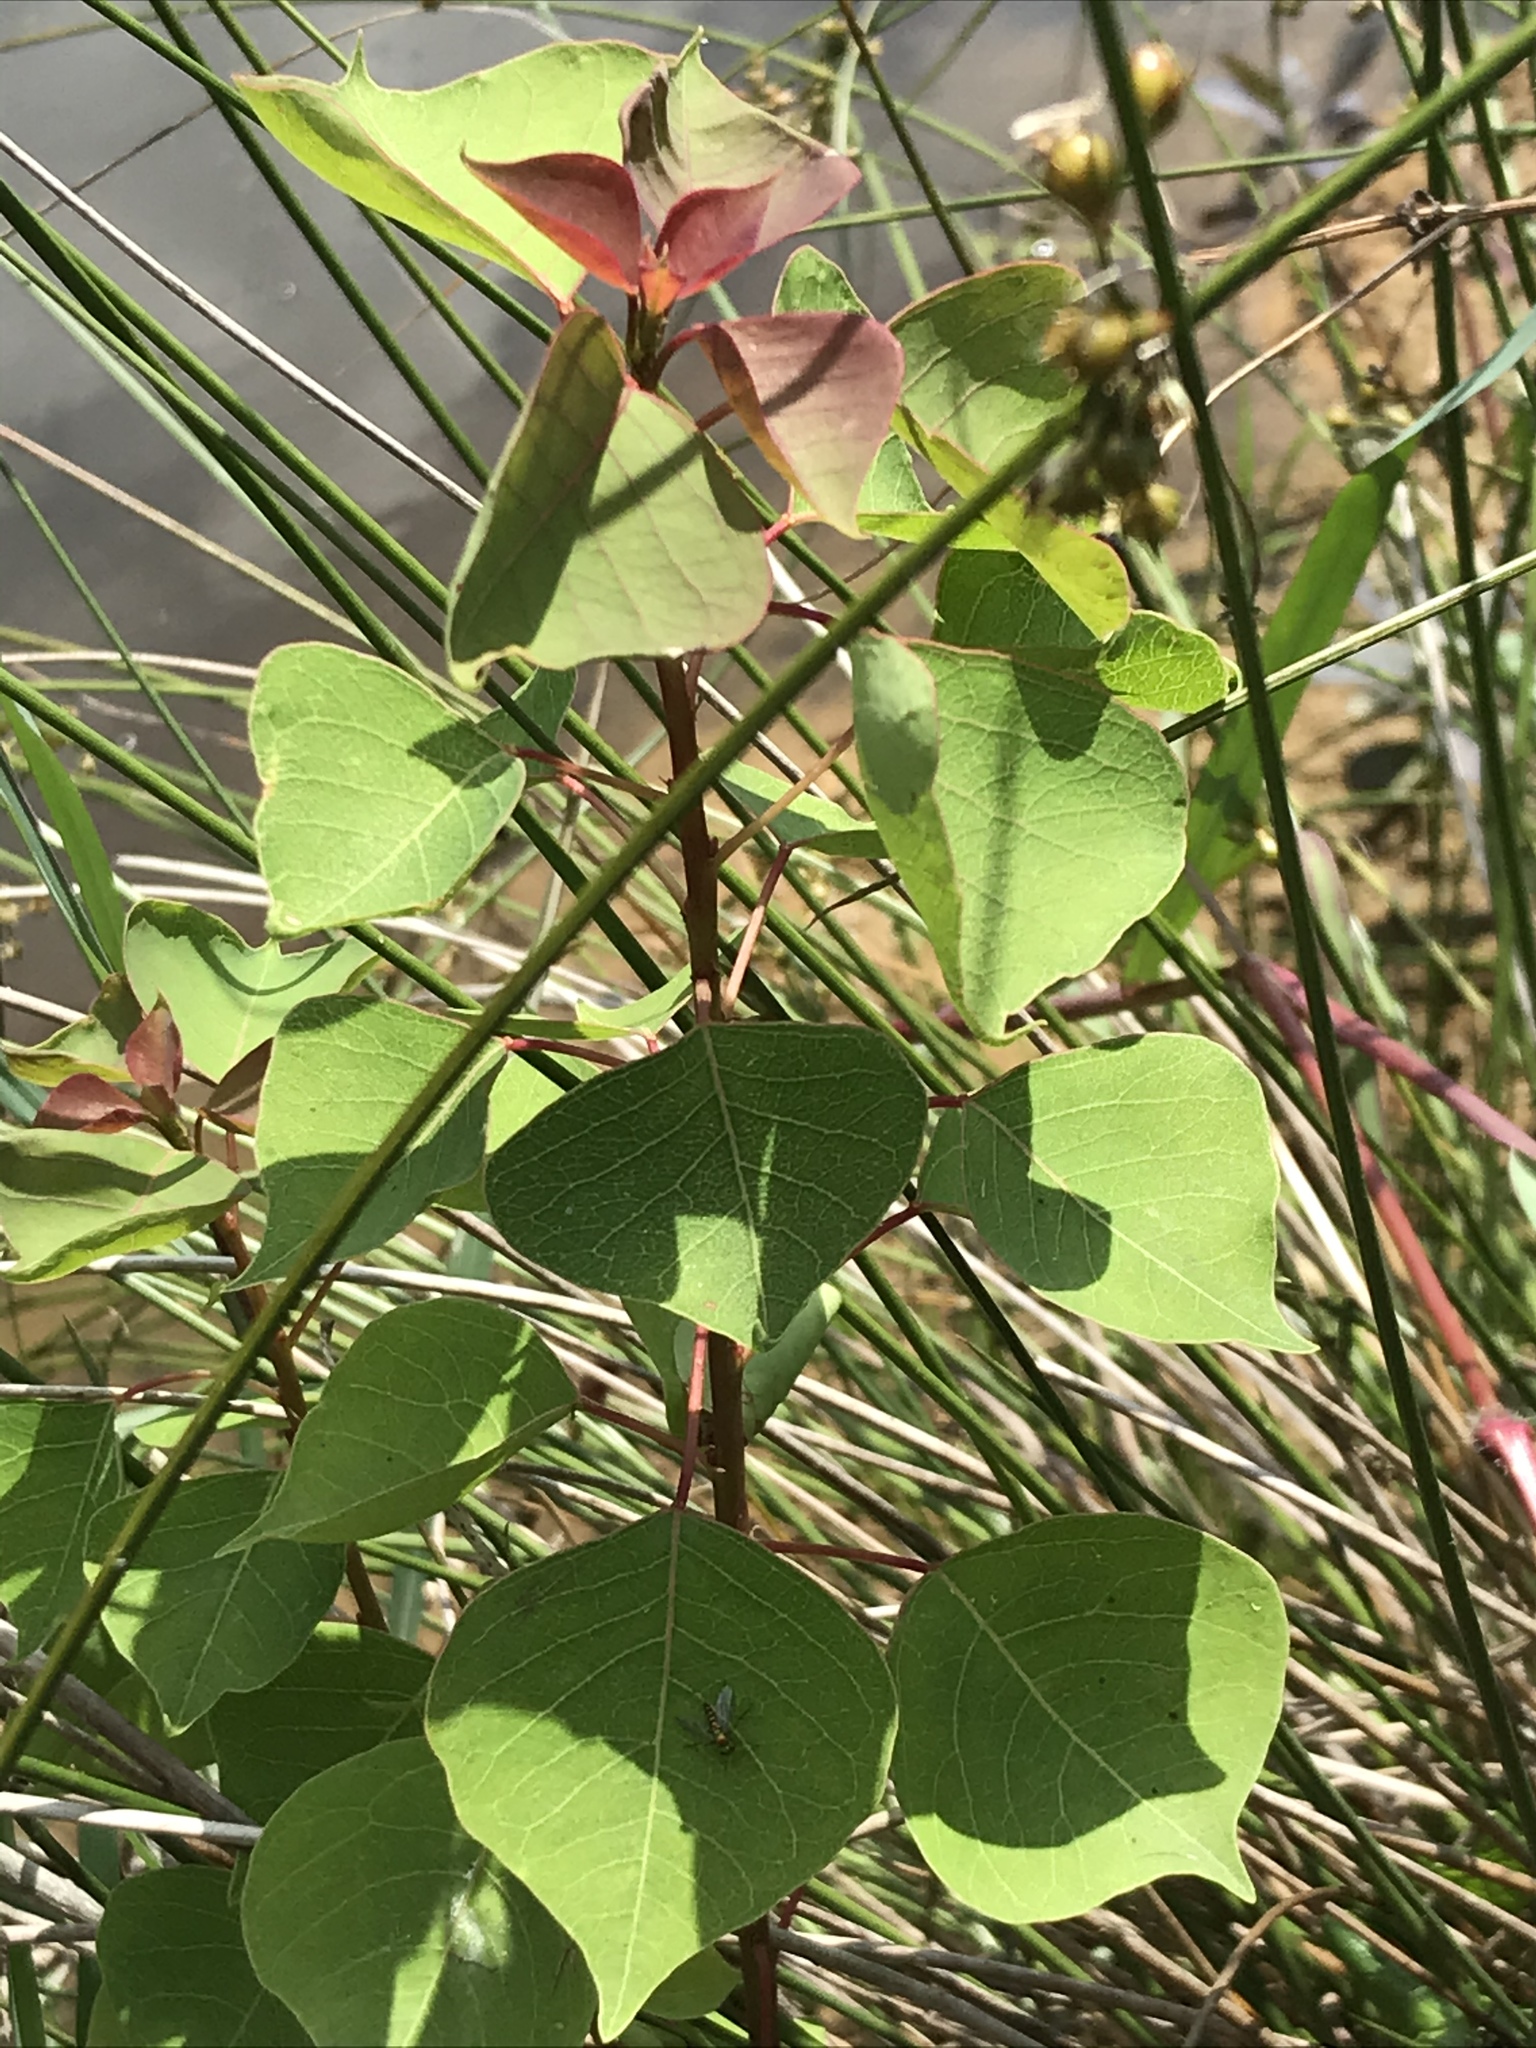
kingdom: Plantae
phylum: Tracheophyta
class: Magnoliopsida
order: Malpighiales
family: Euphorbiaceae
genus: Triadica
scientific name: Triadica sebifera
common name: Chinese tallow
